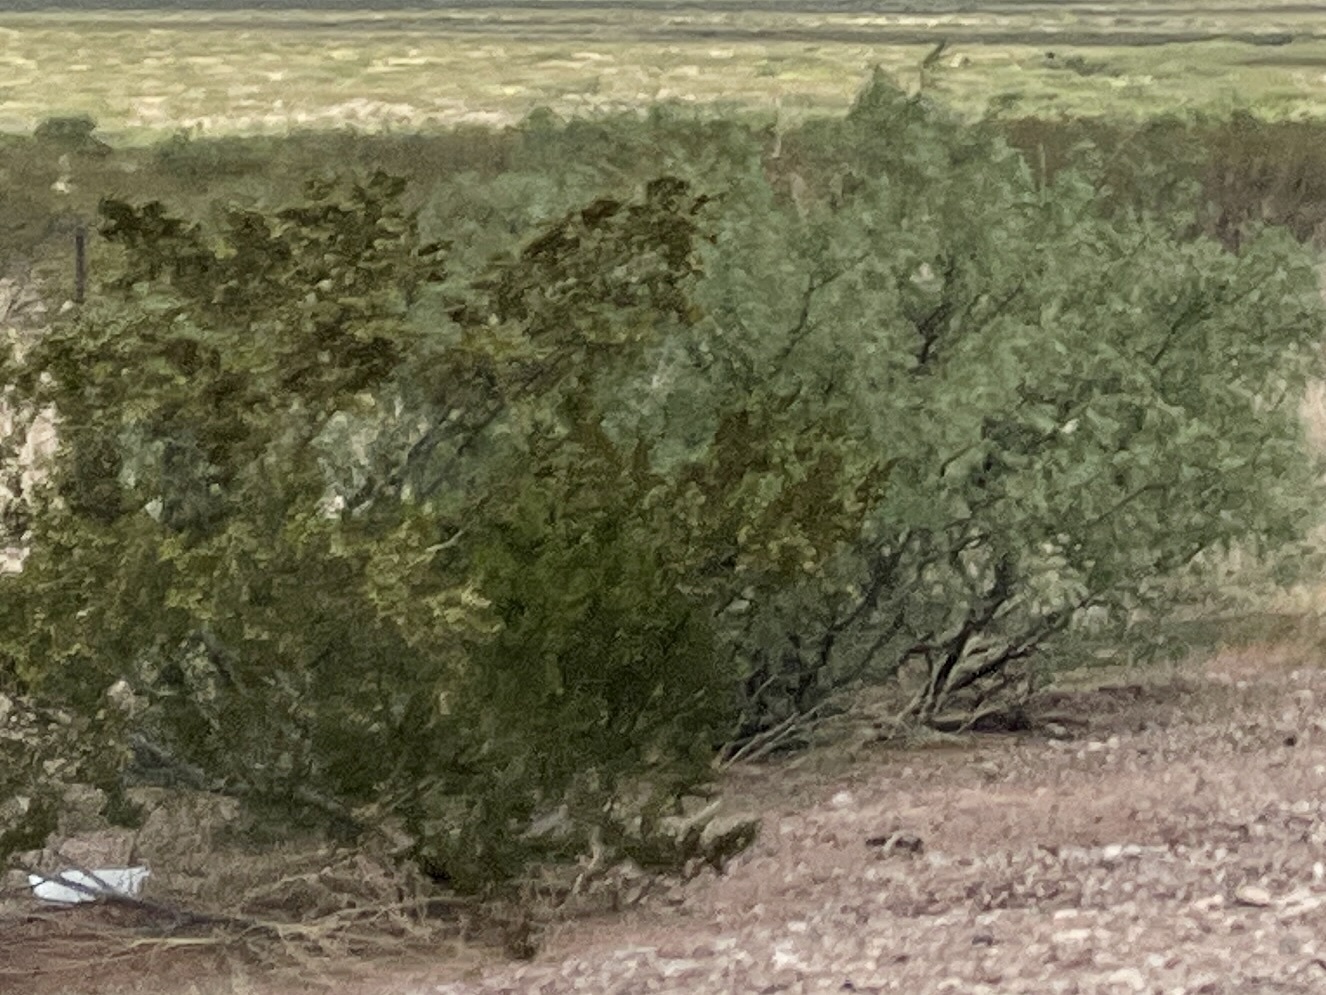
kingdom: Plantae
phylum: Tracheophyta
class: Magnoliopsida
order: Zygophyllales
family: Zygophyllaceae
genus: Larrea
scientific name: Larrea tridentata
